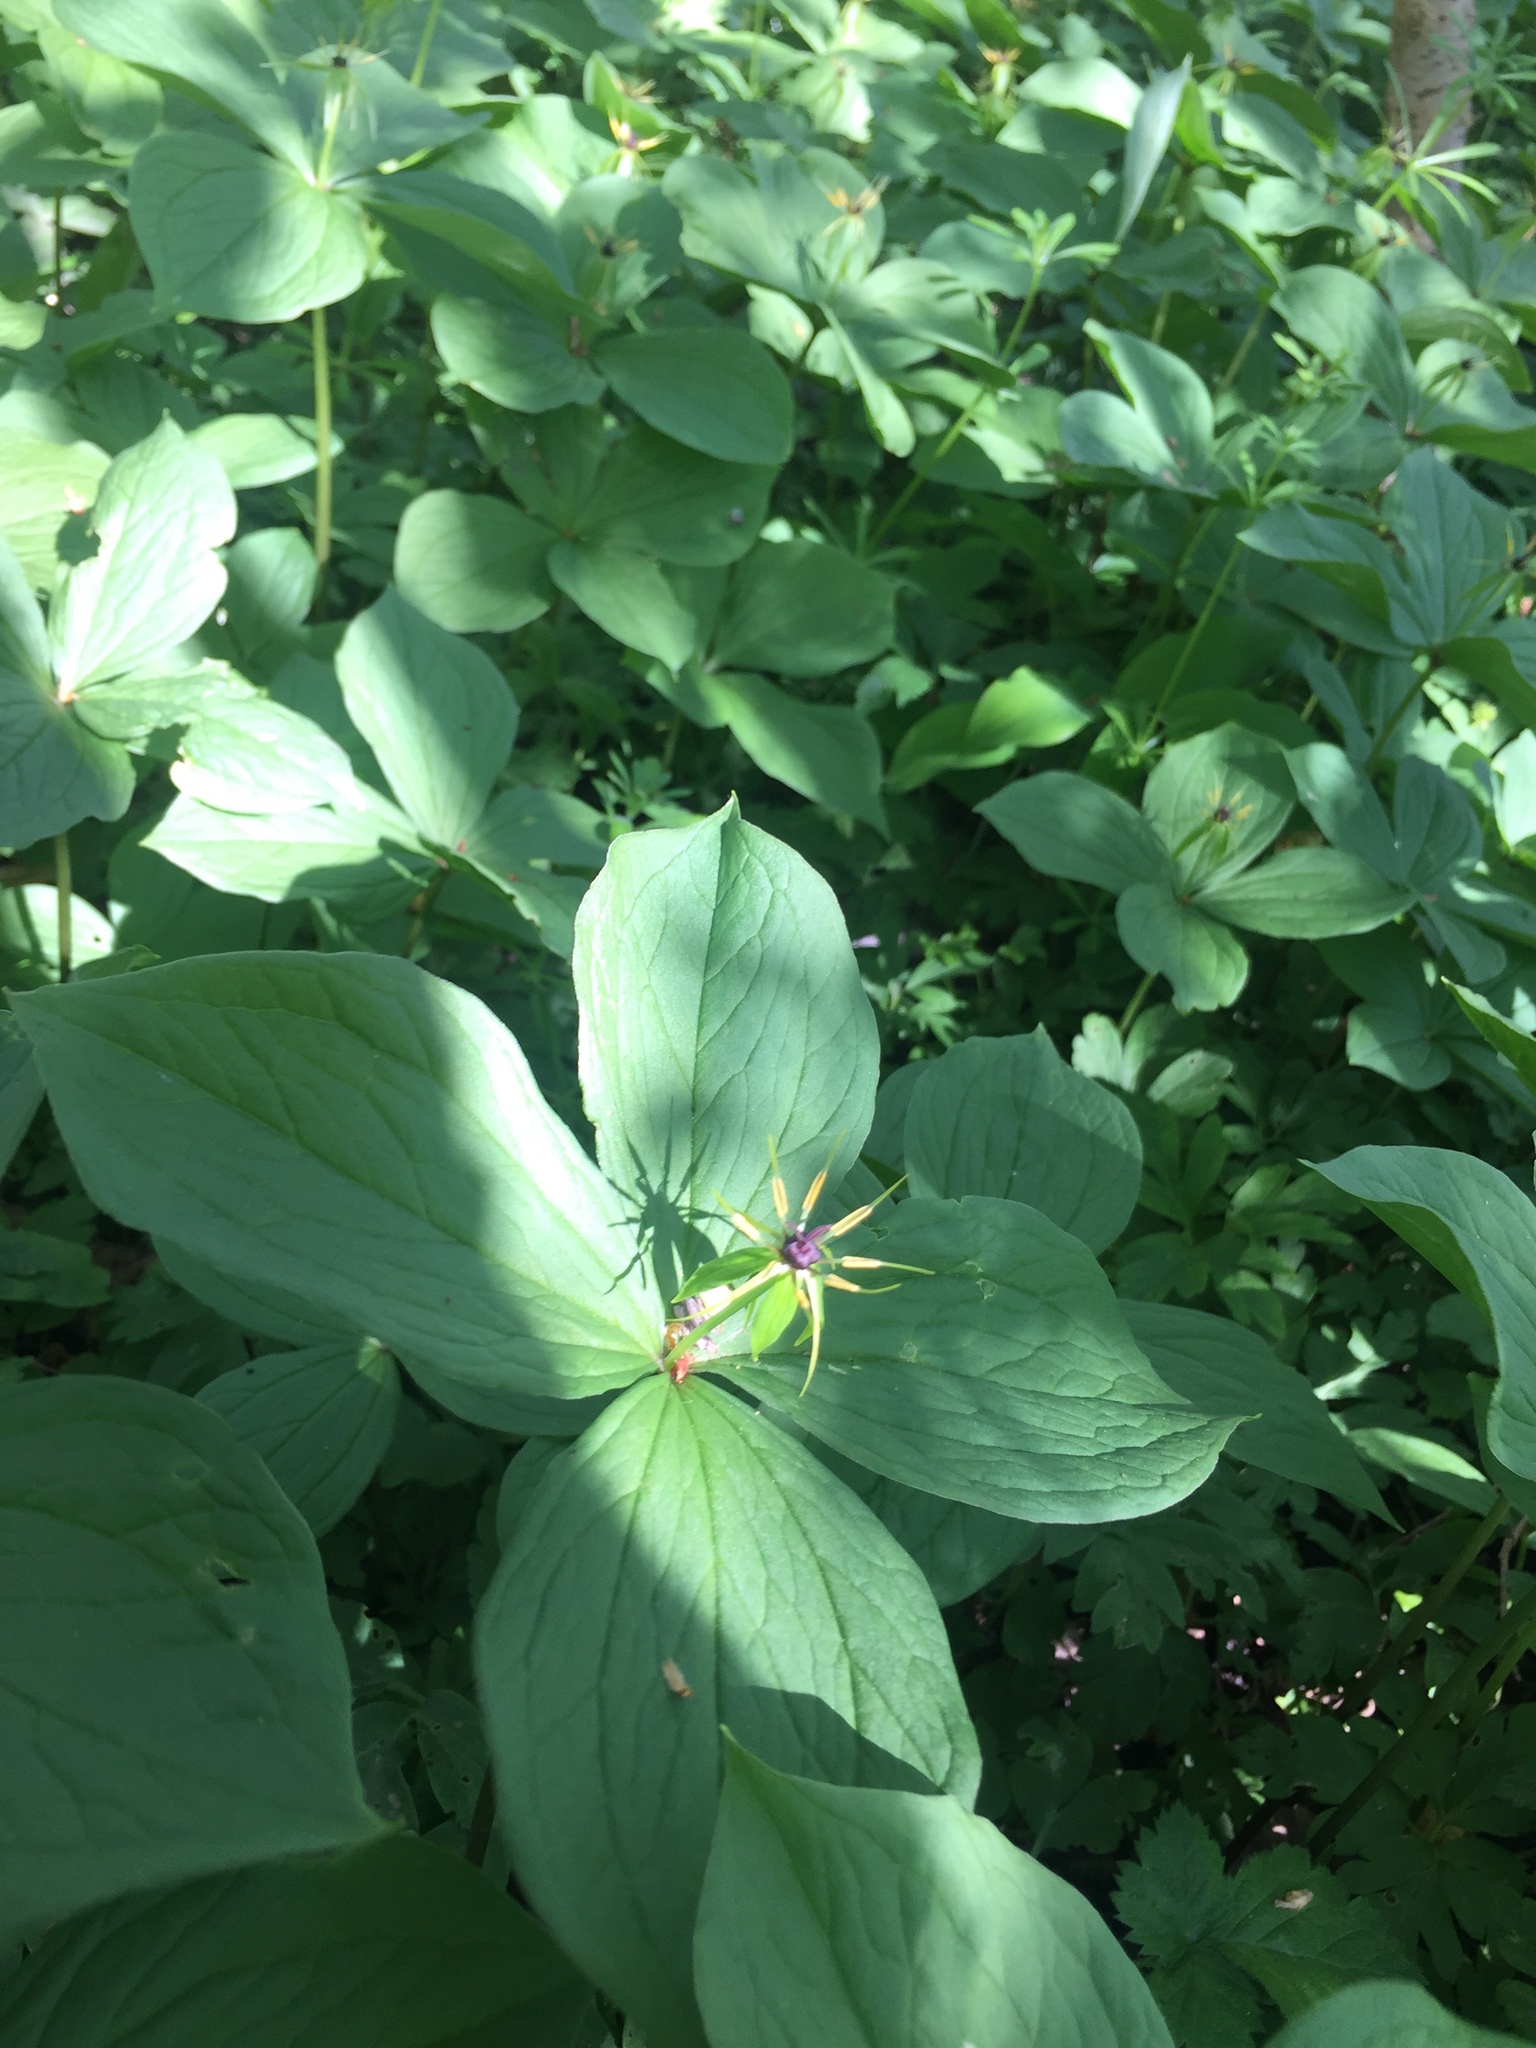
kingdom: Plantae
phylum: Tracheophyta
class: Liliopsida
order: Liliales
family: Melanthiaceae
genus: Paris
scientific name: Paris quadrifolia
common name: Herb-paris
